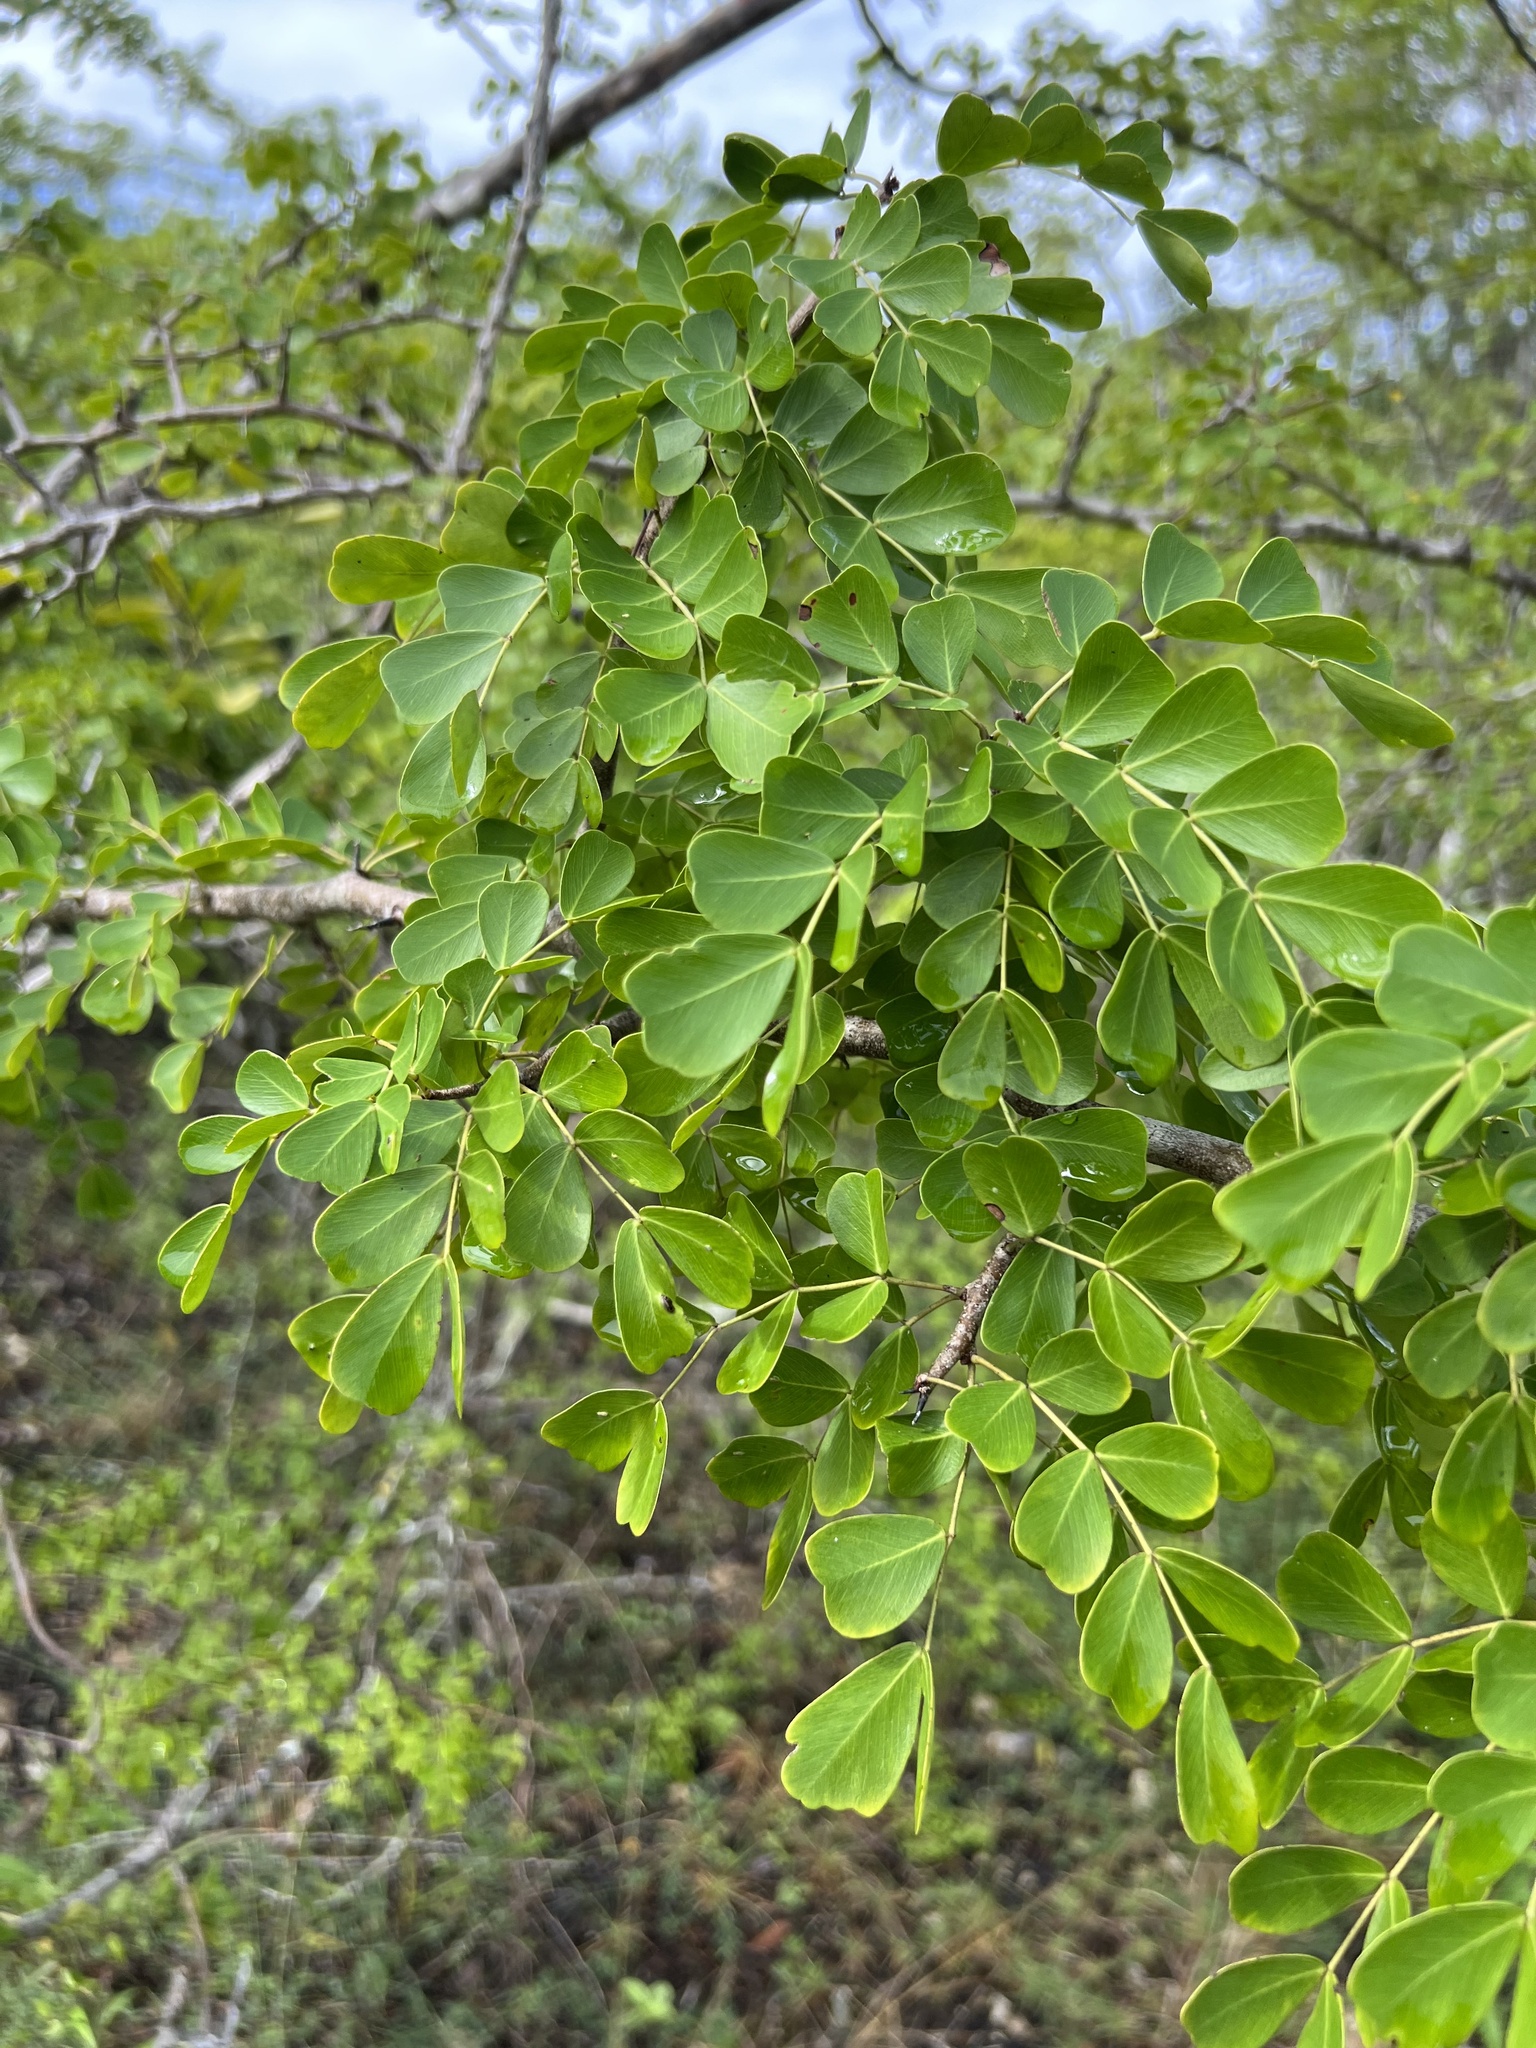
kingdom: Plantae
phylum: Tracheophyta
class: Magnoliopsida
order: Fabales
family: Fabaceae
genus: Haematoxylum
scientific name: Haematoxylum campechianum
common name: Logwood
